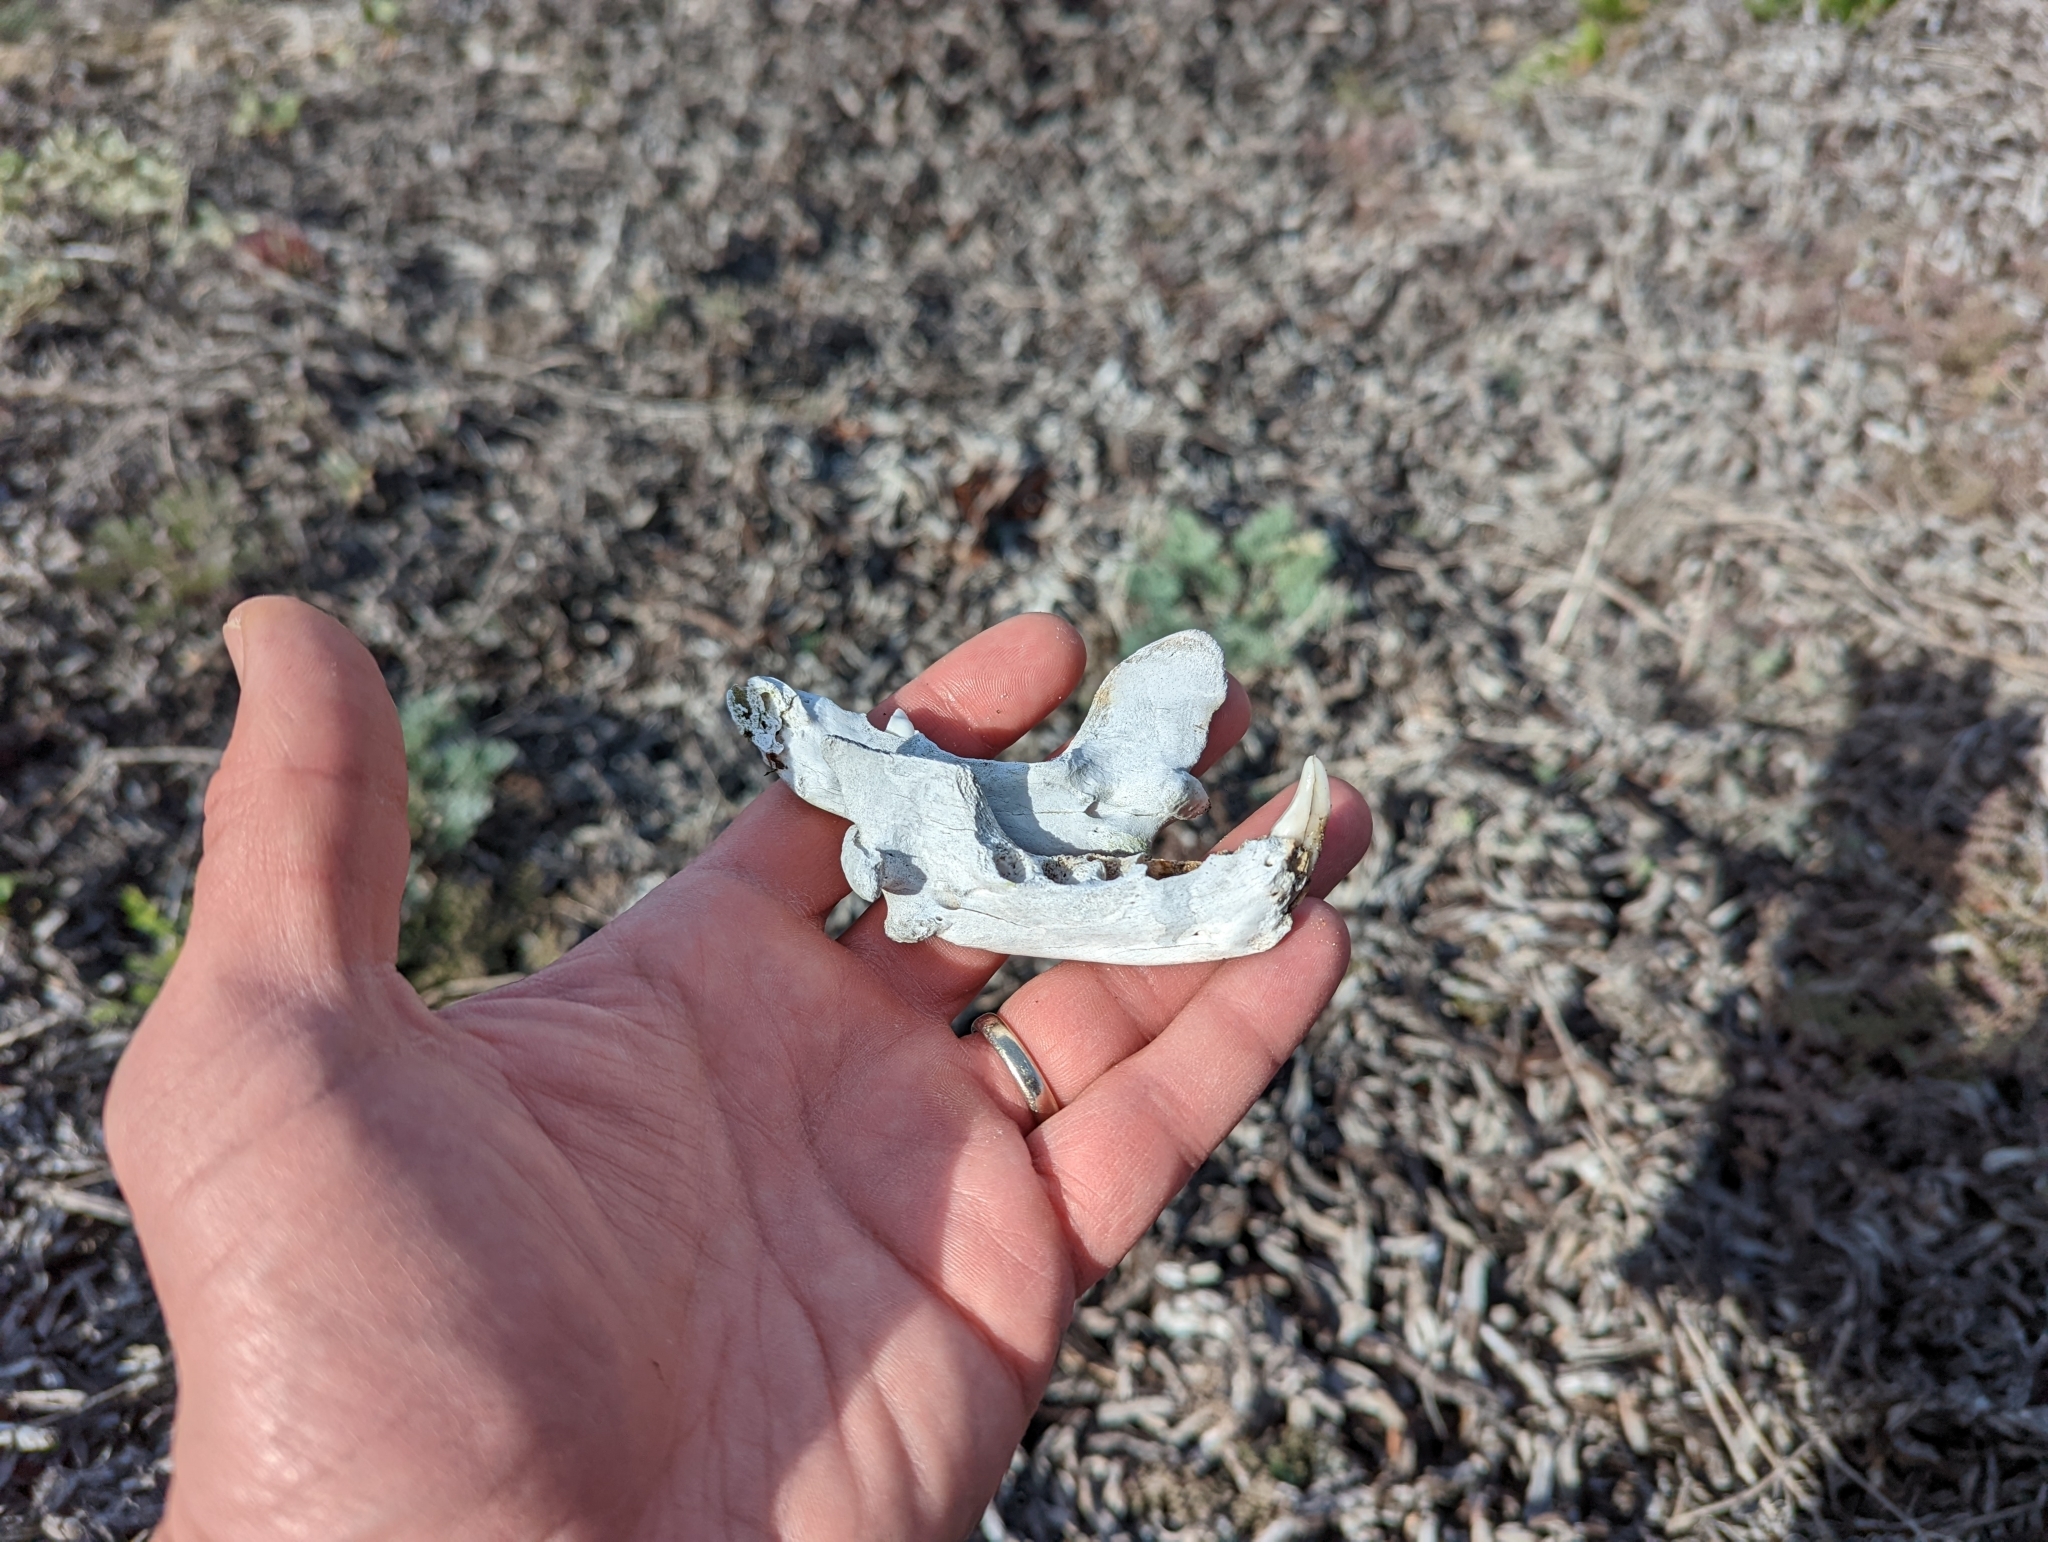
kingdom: Animalia
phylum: Chordata
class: Mammalia
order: Carnivora
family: Mustelidae
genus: Enhydra
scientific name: Enhydra lutris
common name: Sea otter
